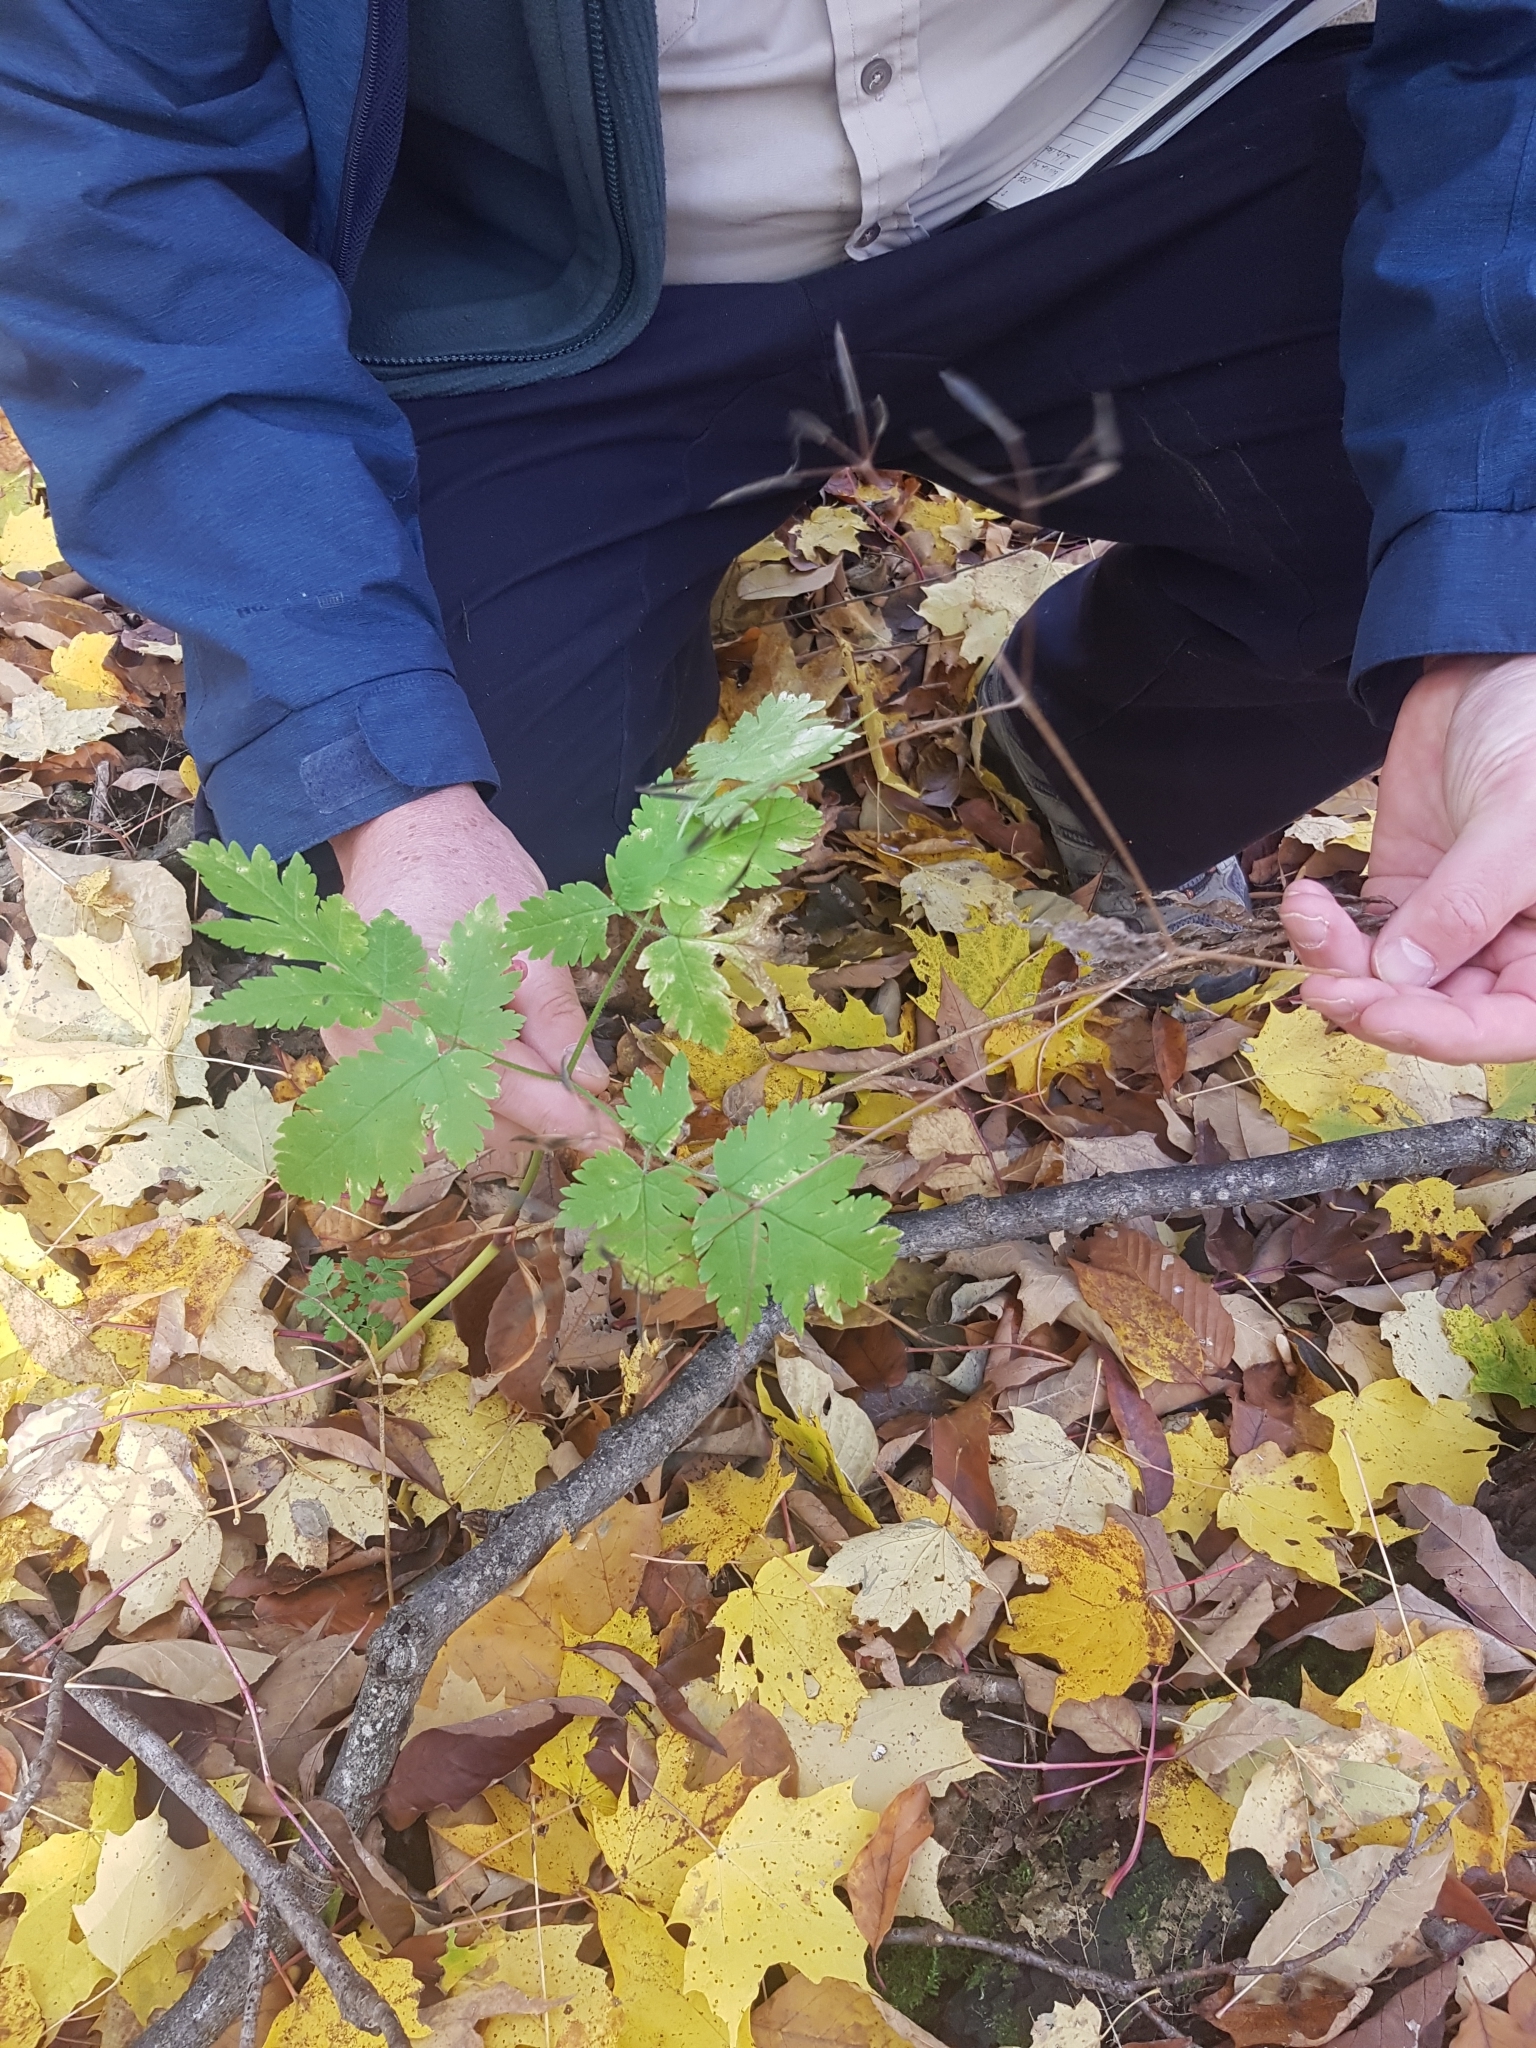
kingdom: Plantae
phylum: Tracheophyta
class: Magnoliopsida
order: Apiales
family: Apiaceae
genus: Osmorhiza
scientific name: Osmorhiza claytonii
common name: Hairy sweet cicely
